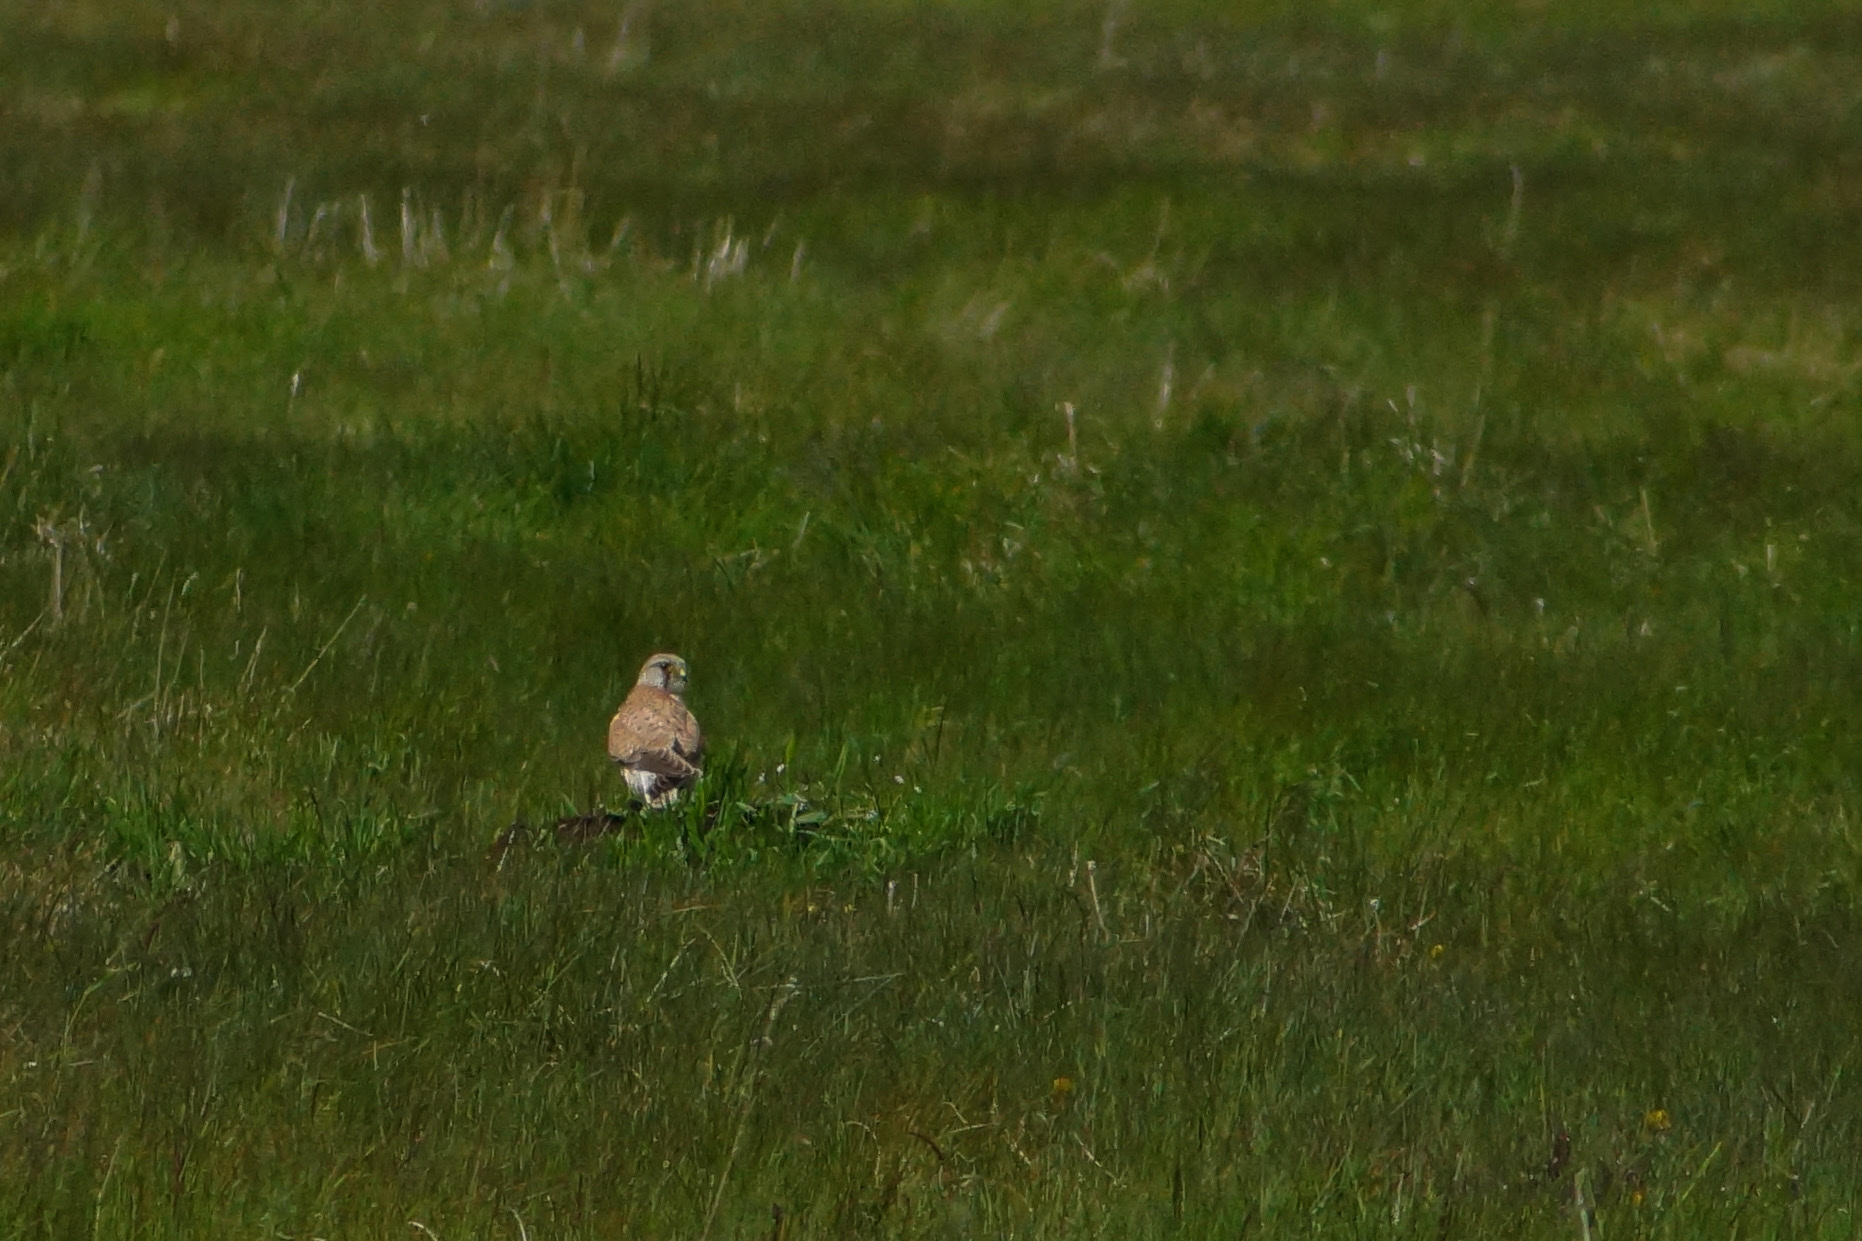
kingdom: Animalia
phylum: Chordata
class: Aves
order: Falconiformes
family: Falconidae
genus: Falco
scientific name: Falco tinnunculus
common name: Common kestrel
